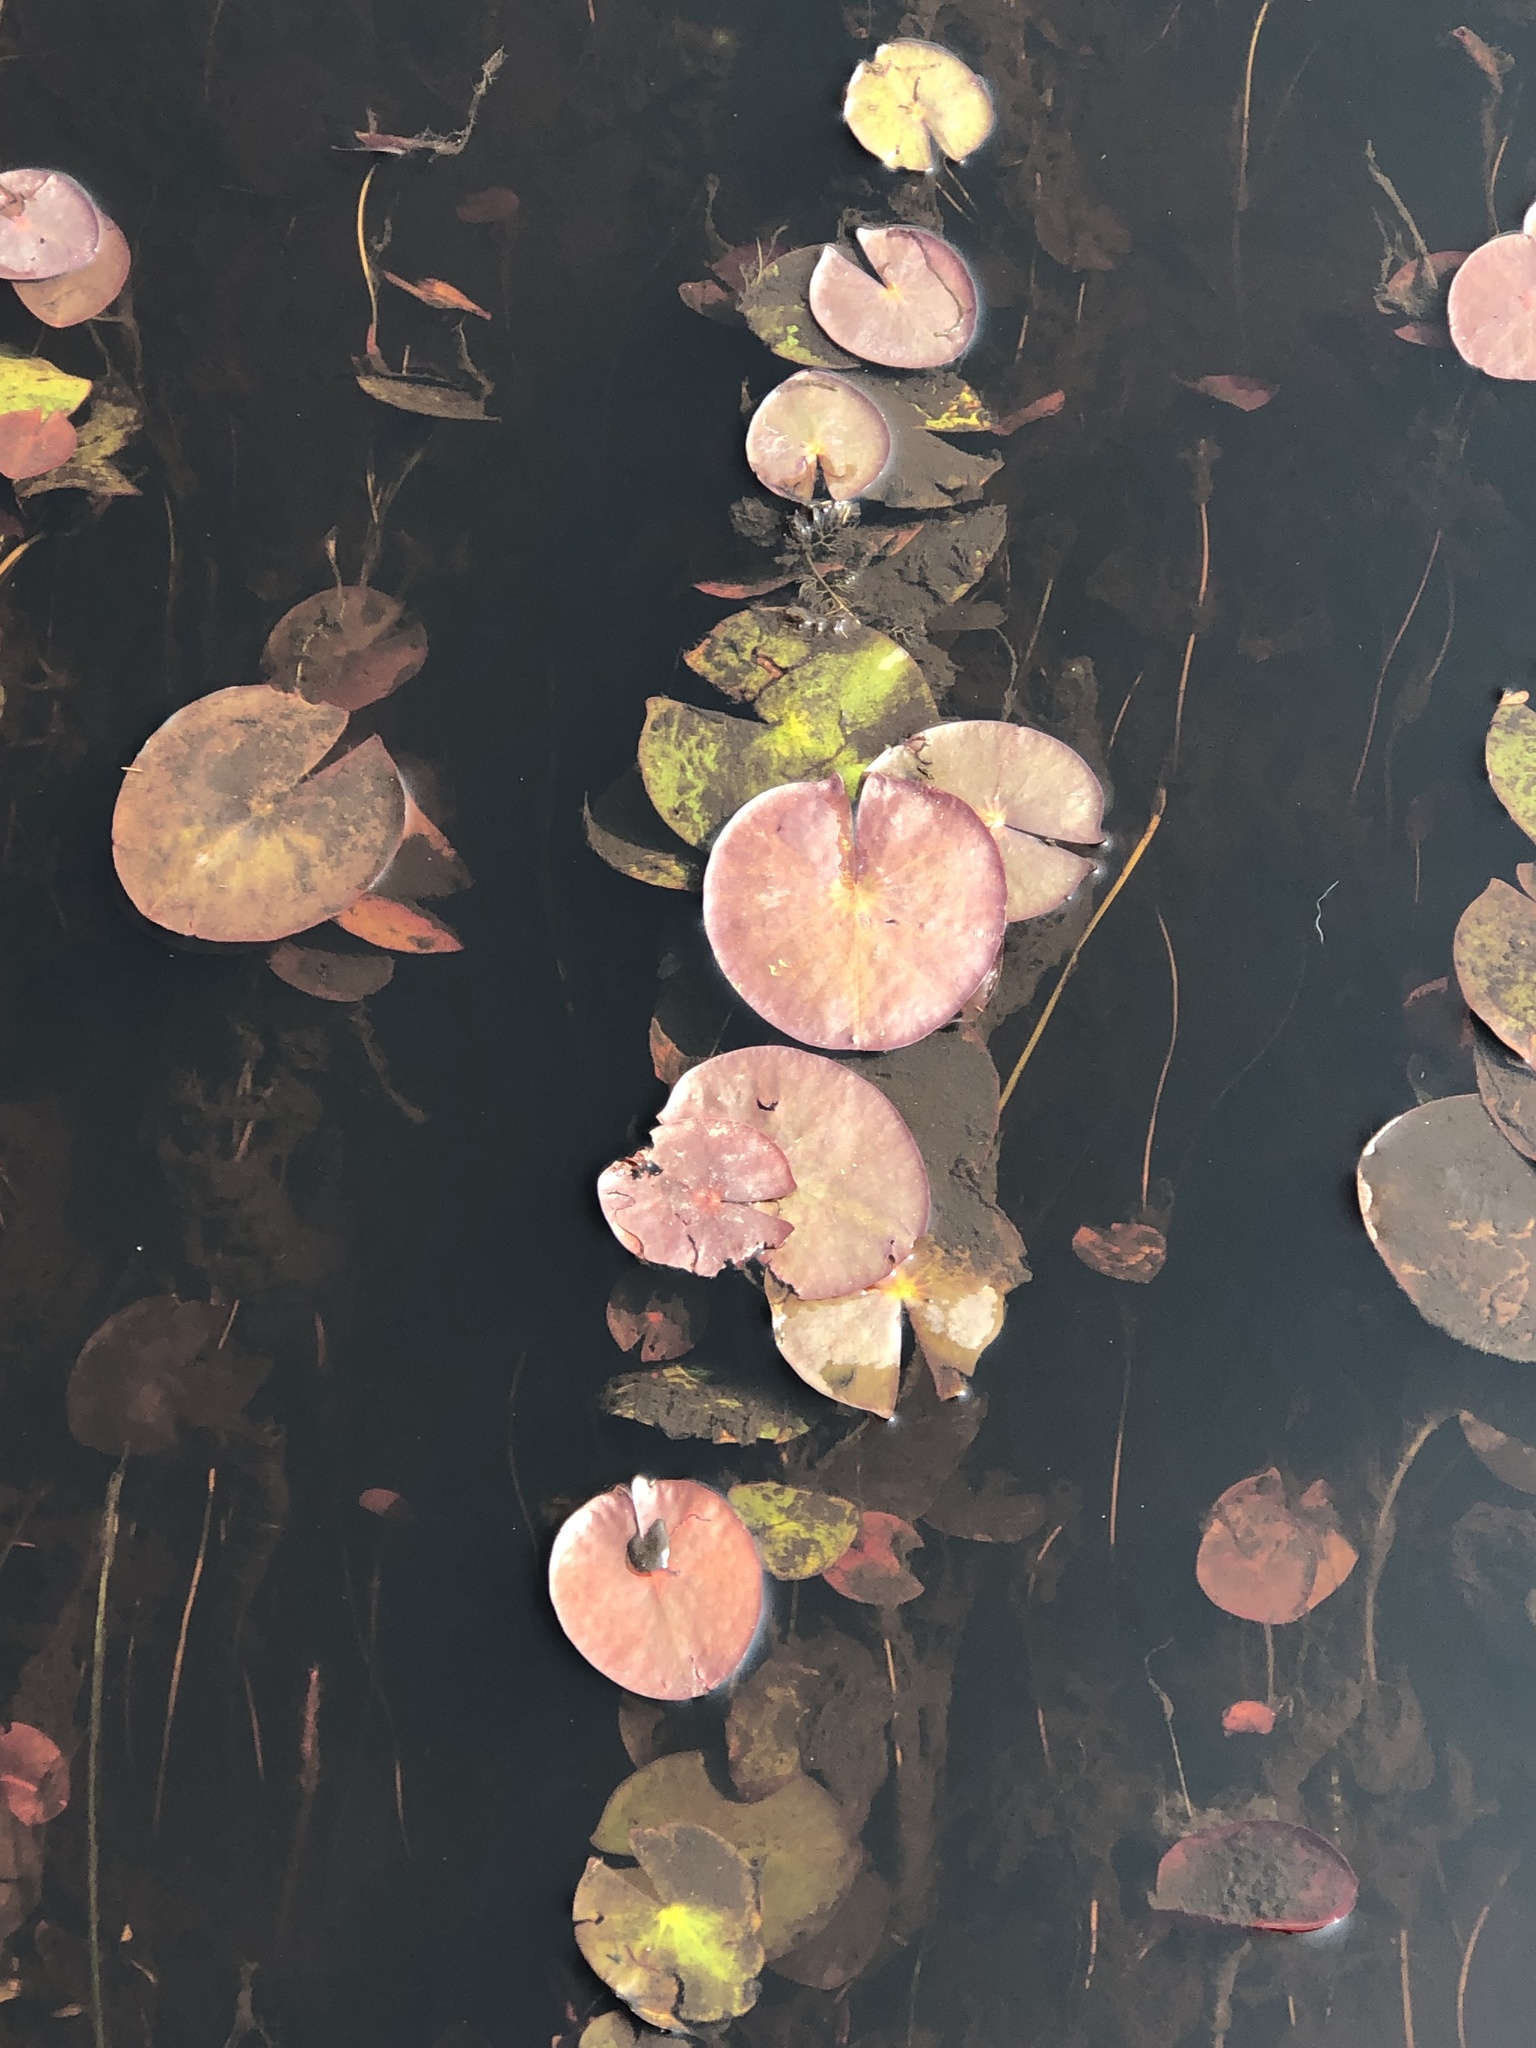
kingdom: Plantae
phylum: Tracheophyta
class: Magnoliopsida
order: Nymphaeales
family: Nymphaeaceae
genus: Nymphaea
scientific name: Nymphaea odorata
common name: Fragrant water-lily
